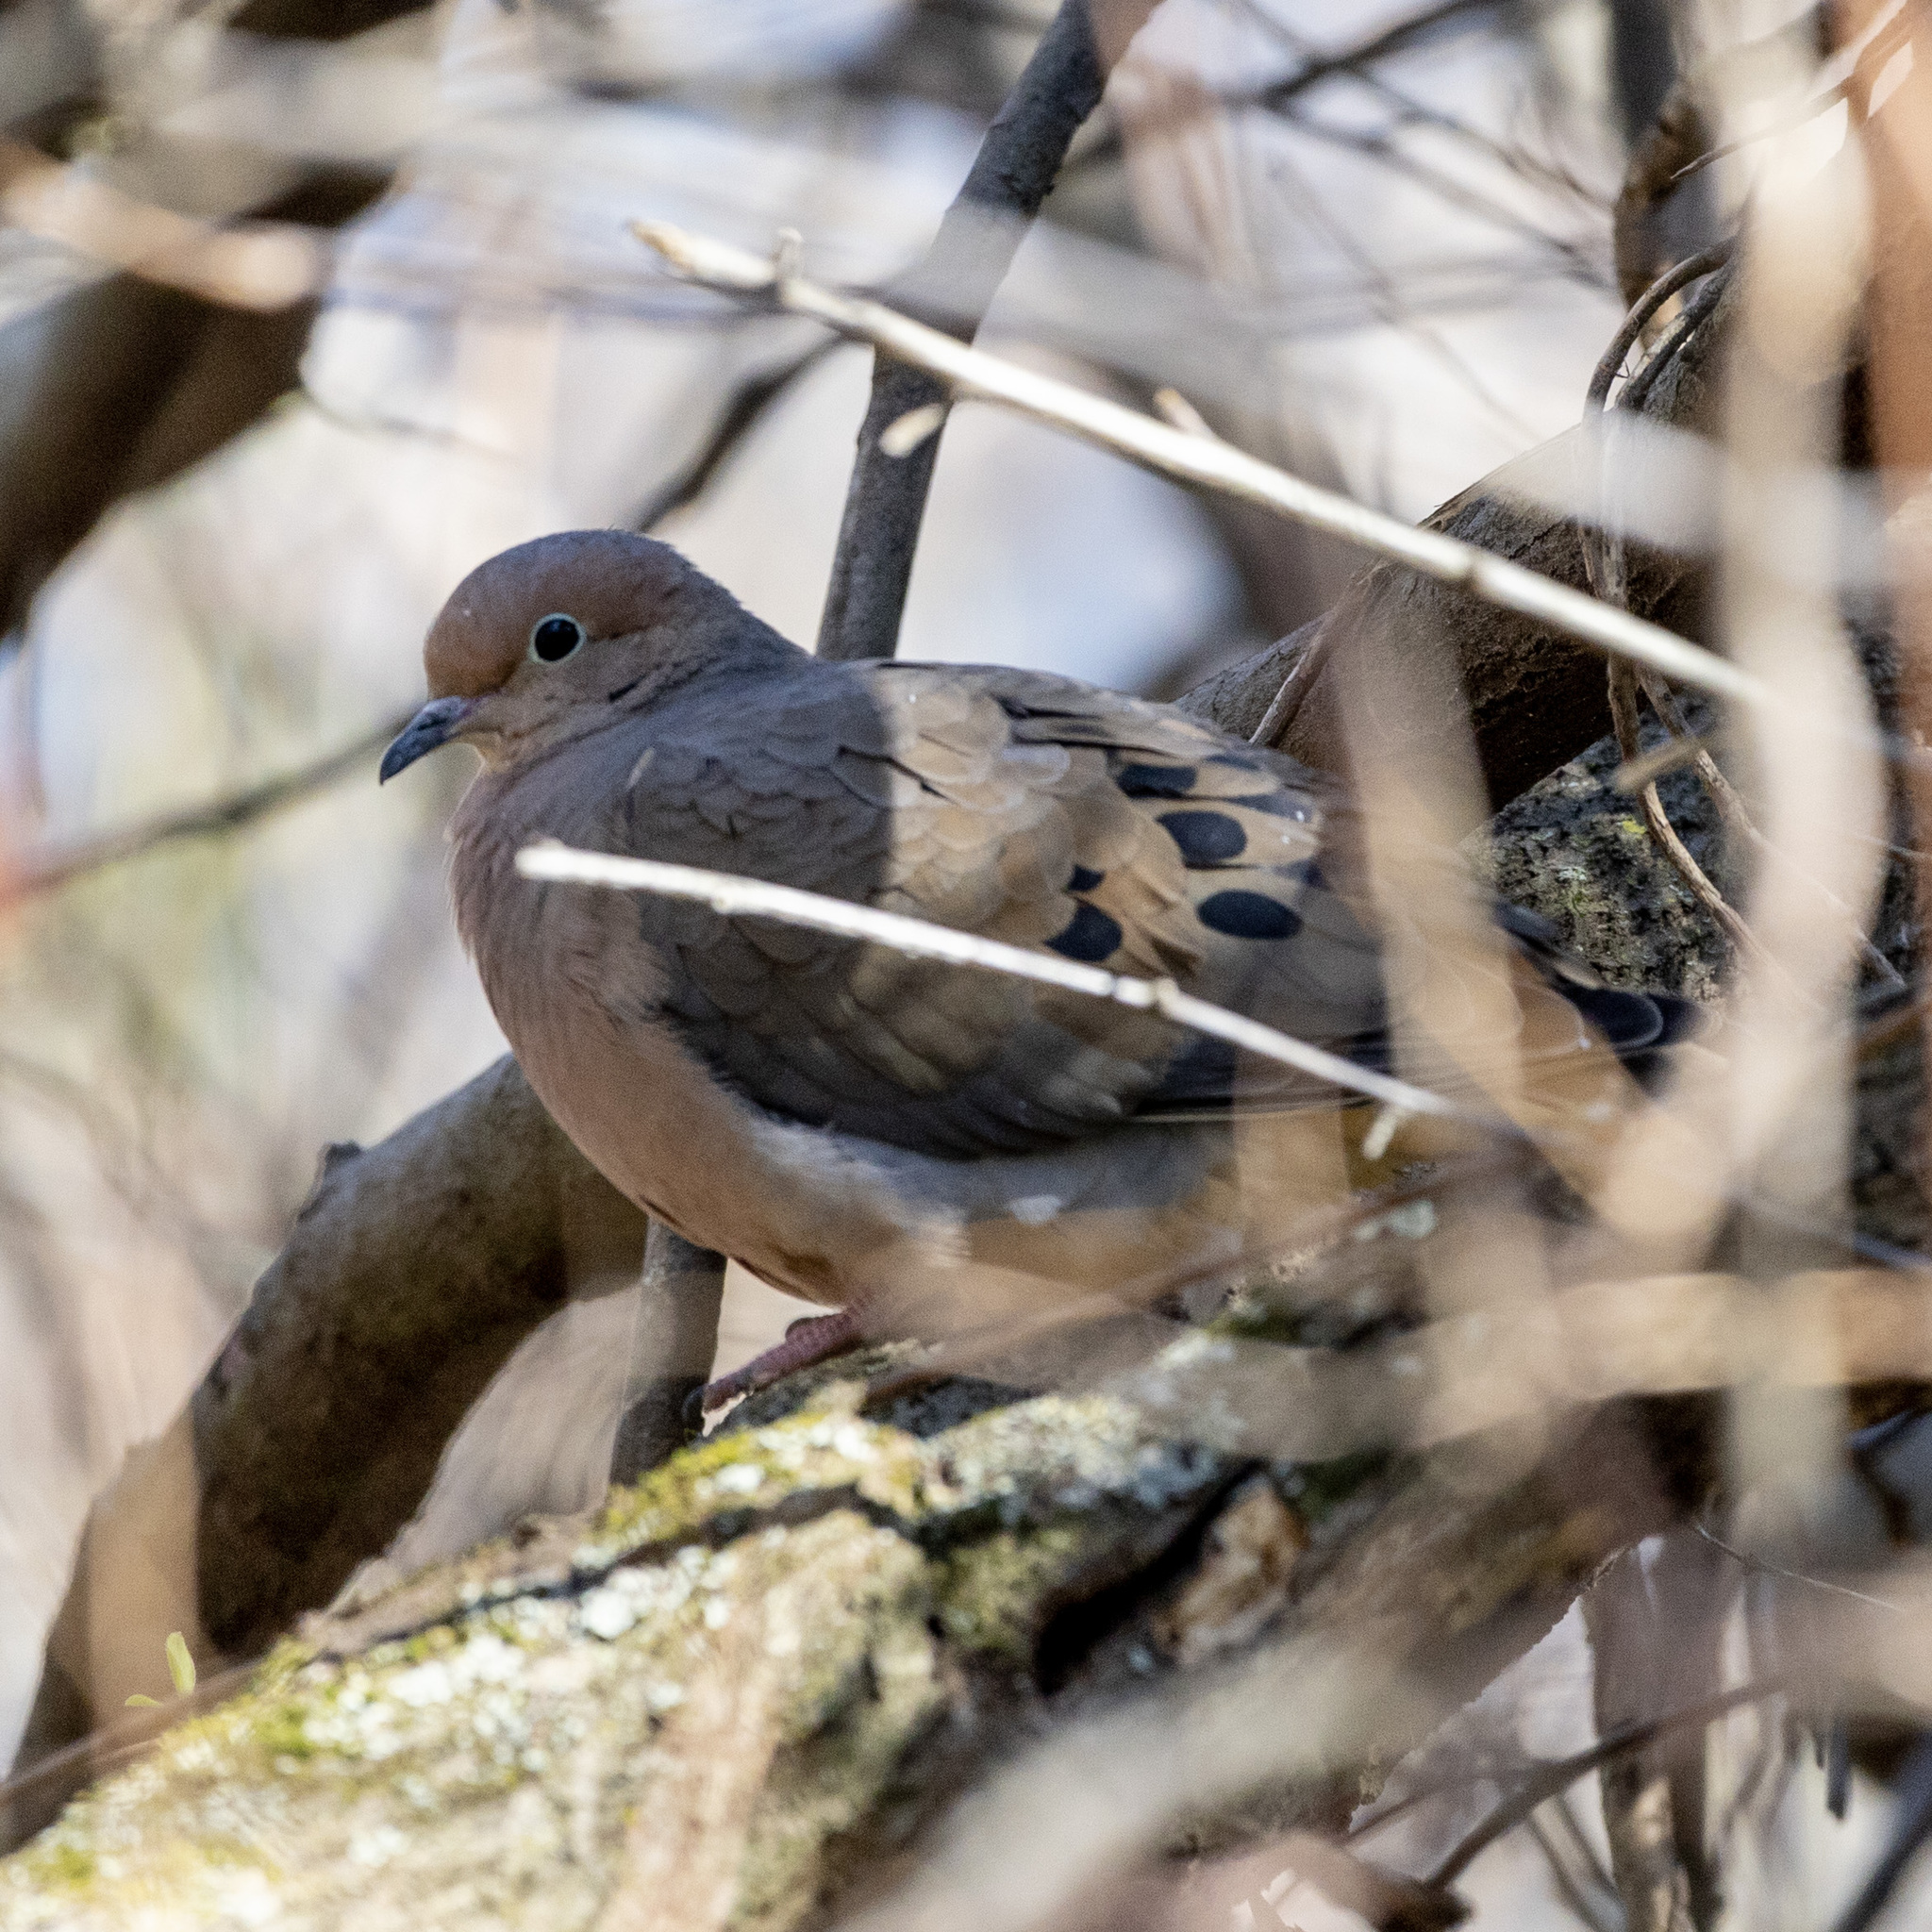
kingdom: Animalia
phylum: Chordata
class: Aves
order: Columbiformes
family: Columbidae
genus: Zenaida
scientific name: Zenaida macroura
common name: Mourning dove
